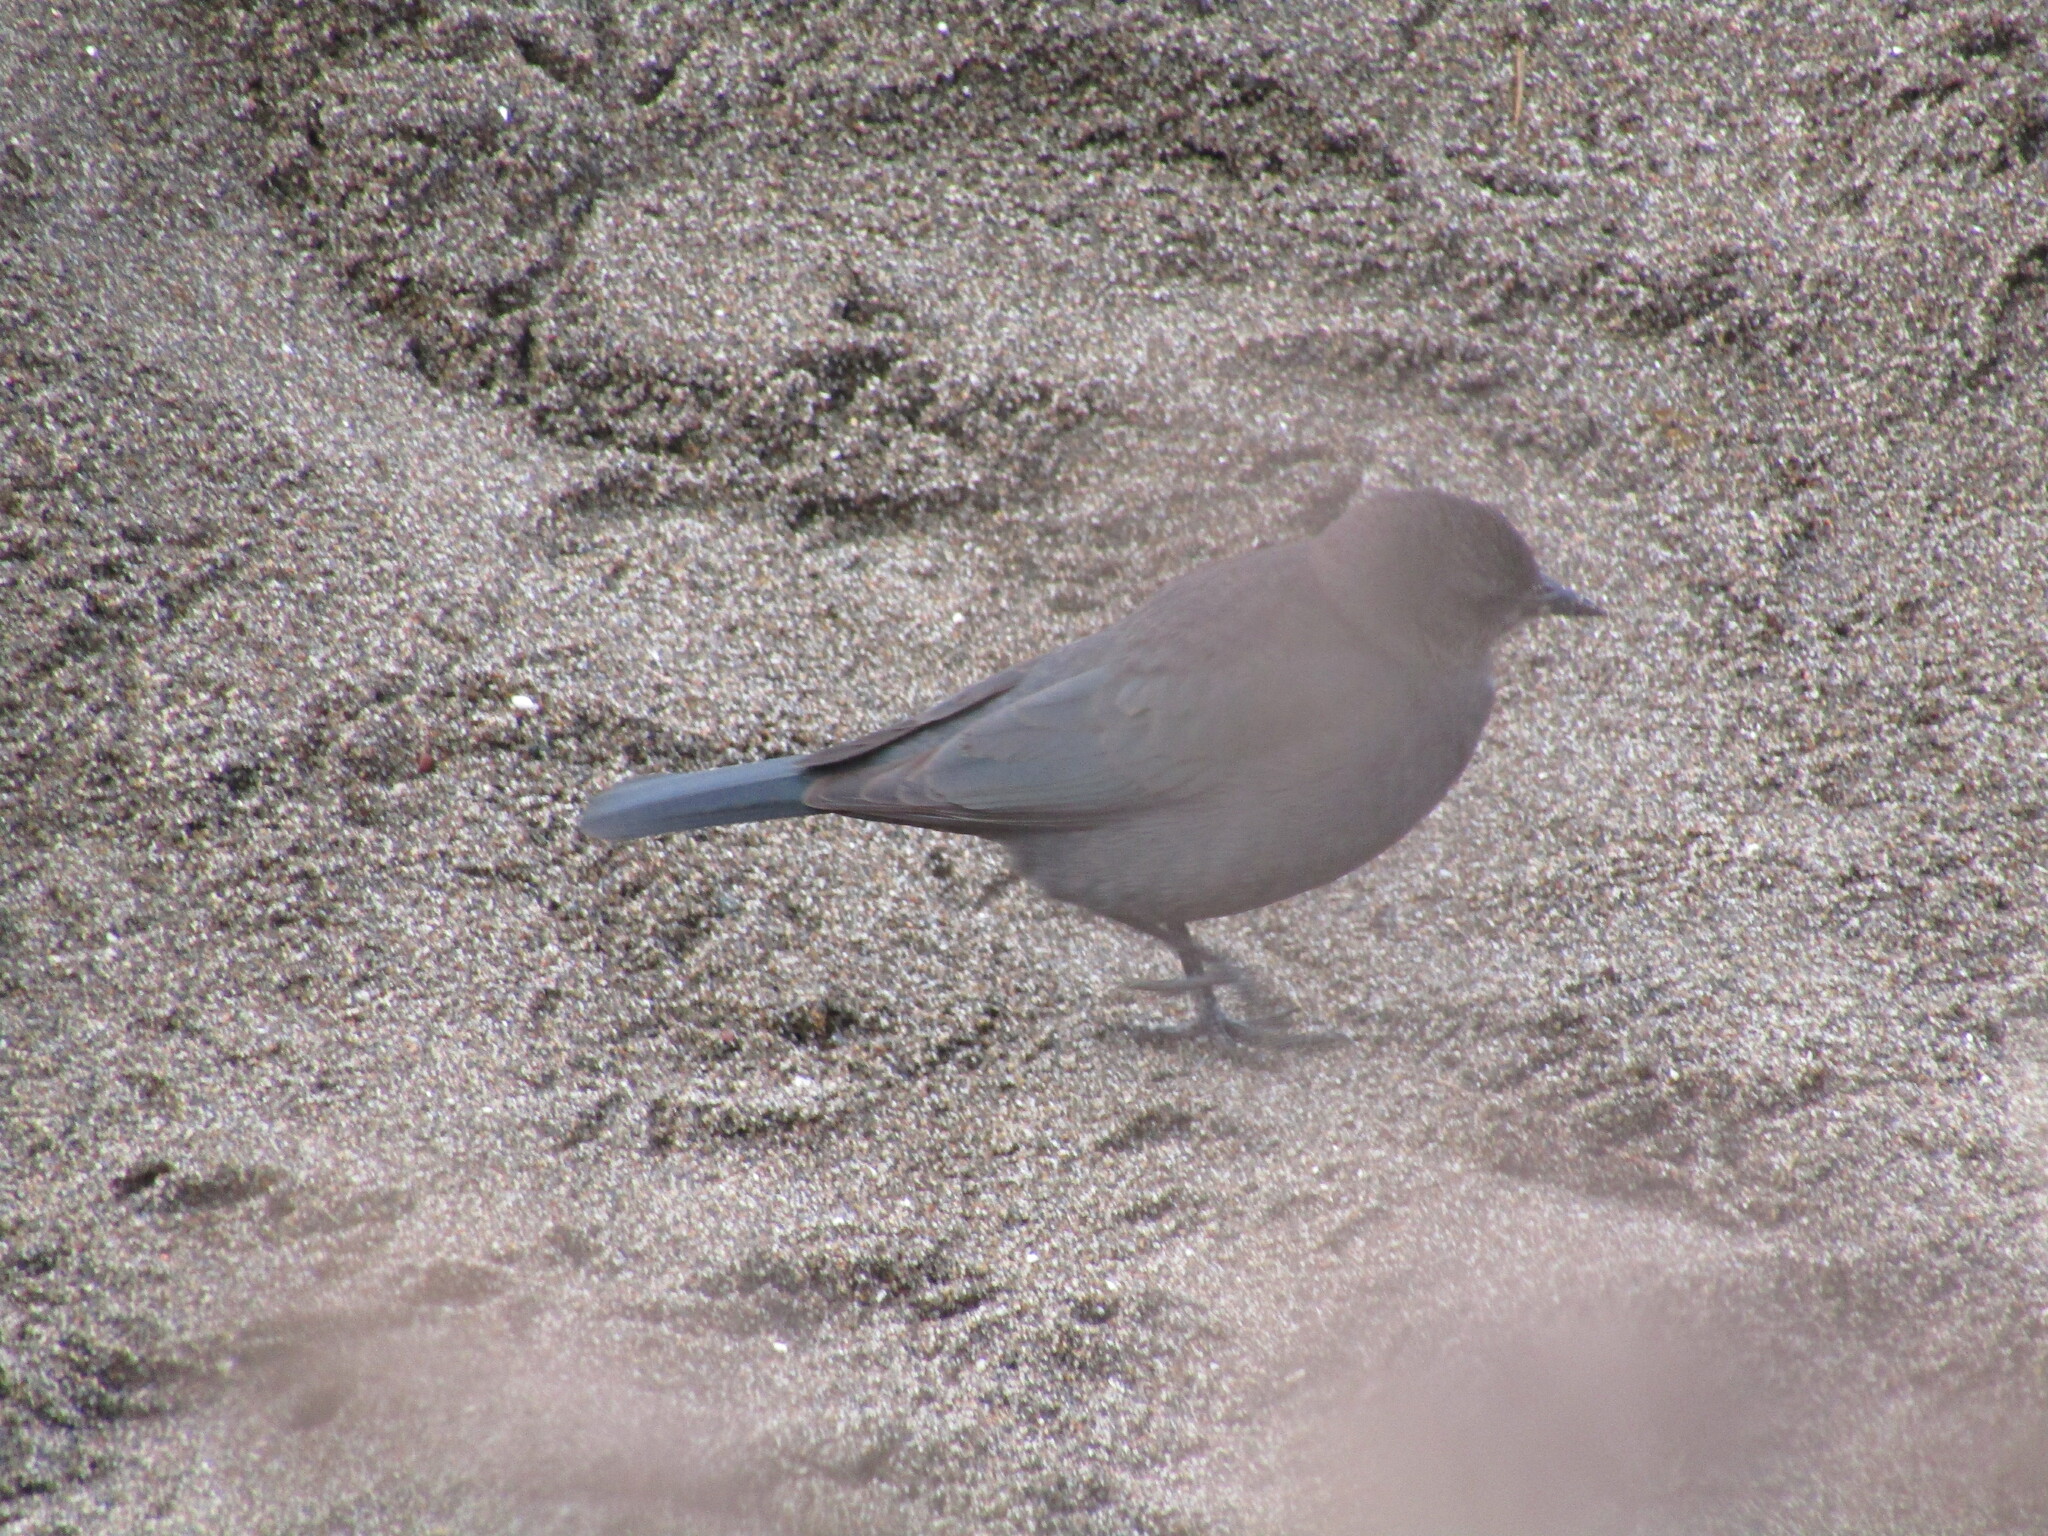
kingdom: Animalia
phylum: Chordata
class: Aves
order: Passeriformes
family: Icteridae
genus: Euphagus
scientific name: Euphagus cyanocephalus
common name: Brewer's blackbird
